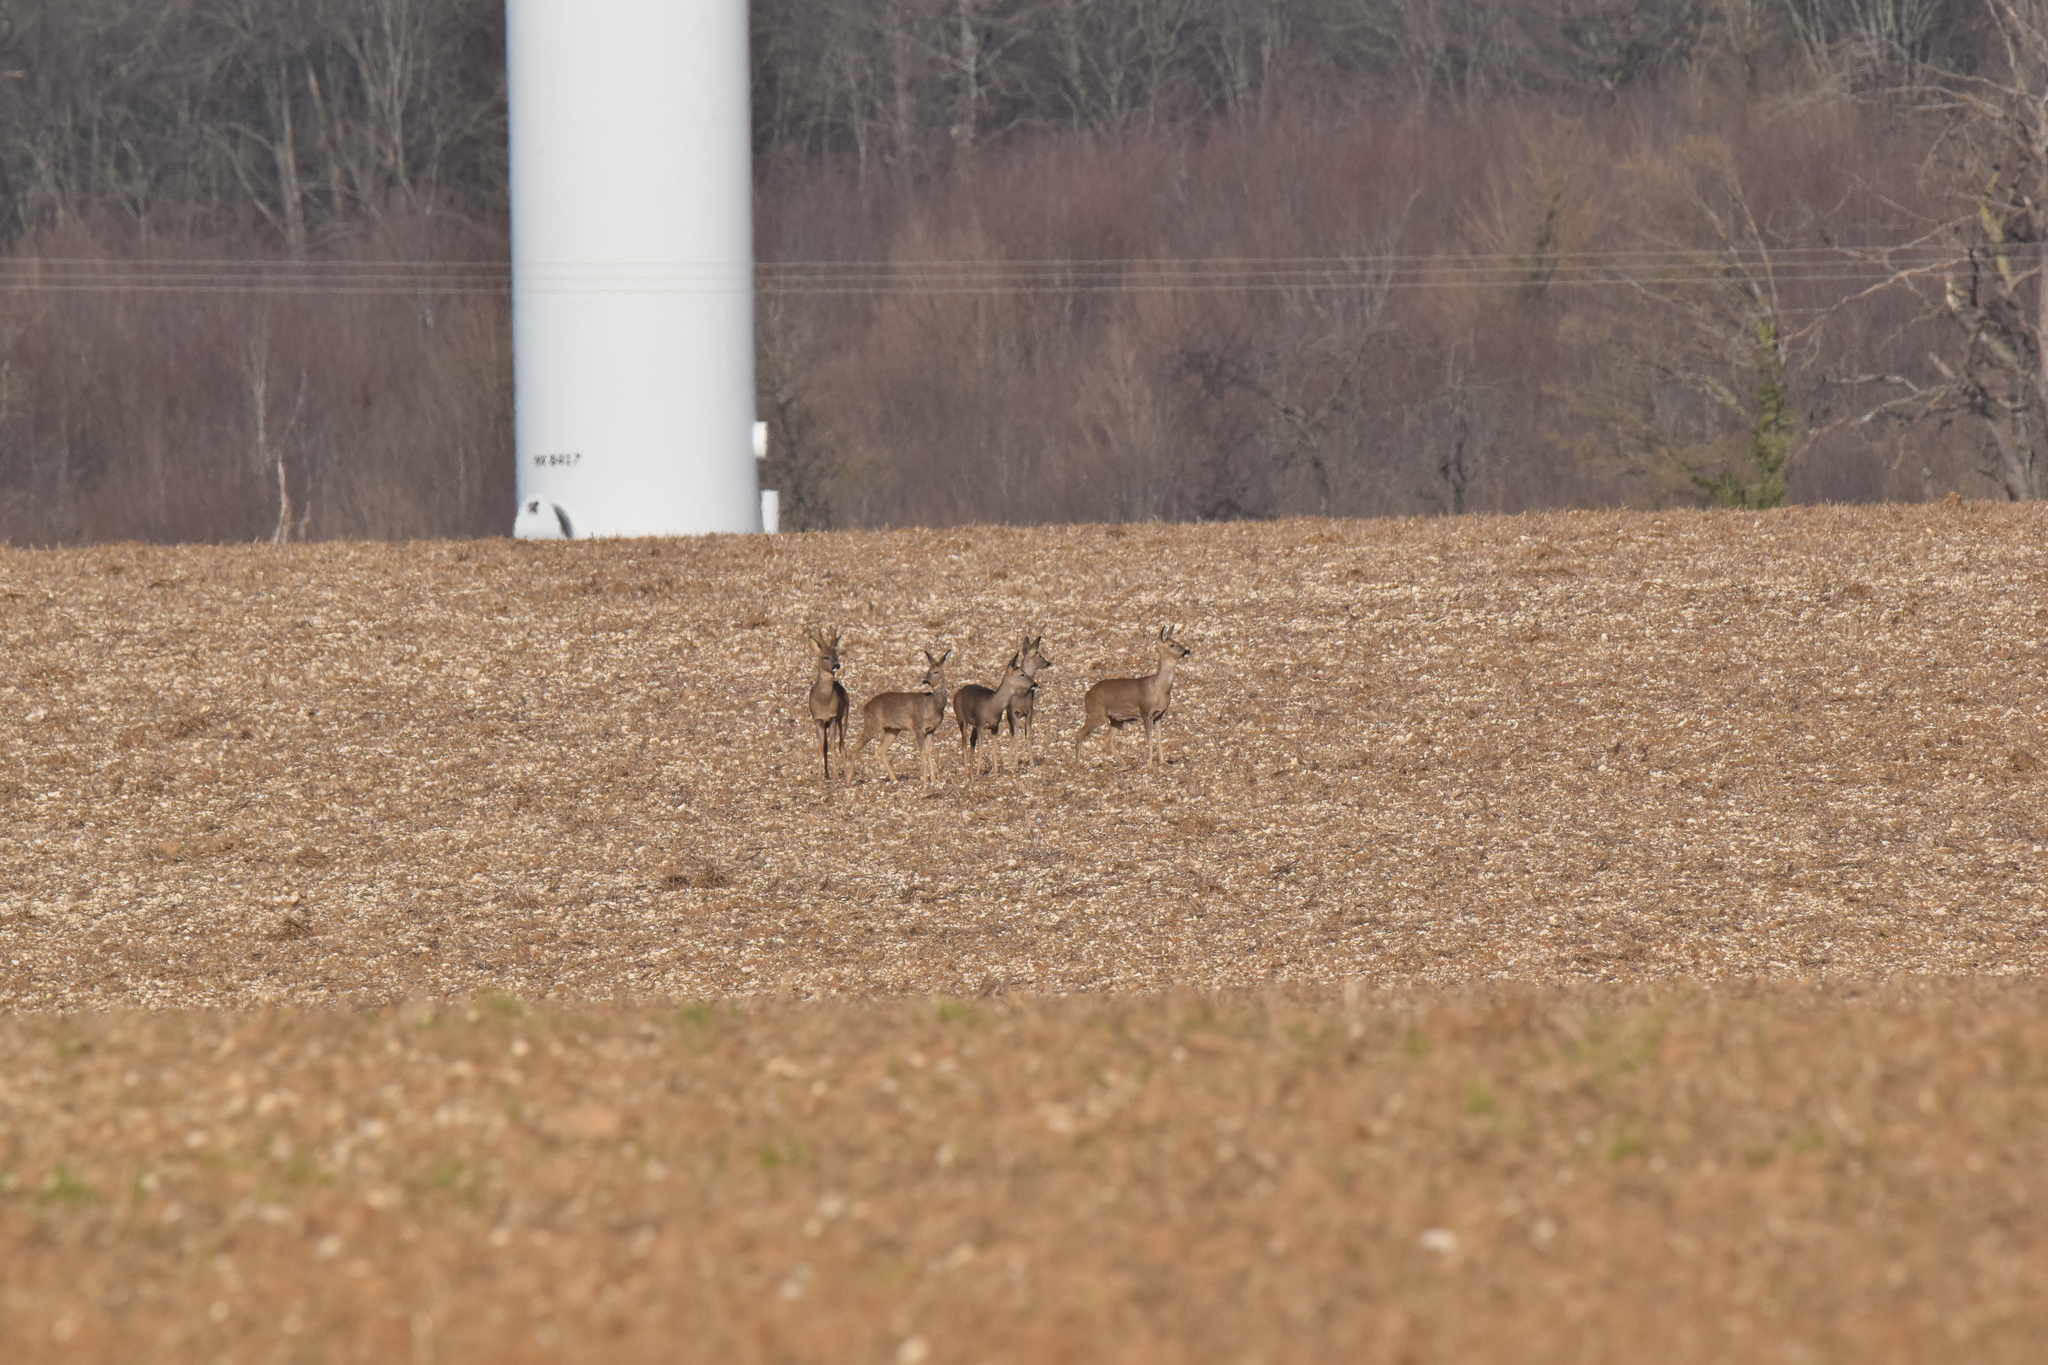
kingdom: Animalia
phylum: Chordata
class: Mammalia
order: Artiodactyla
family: Cervidae
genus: Capreolus
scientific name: Capreolus capreolus
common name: Western roe deer
